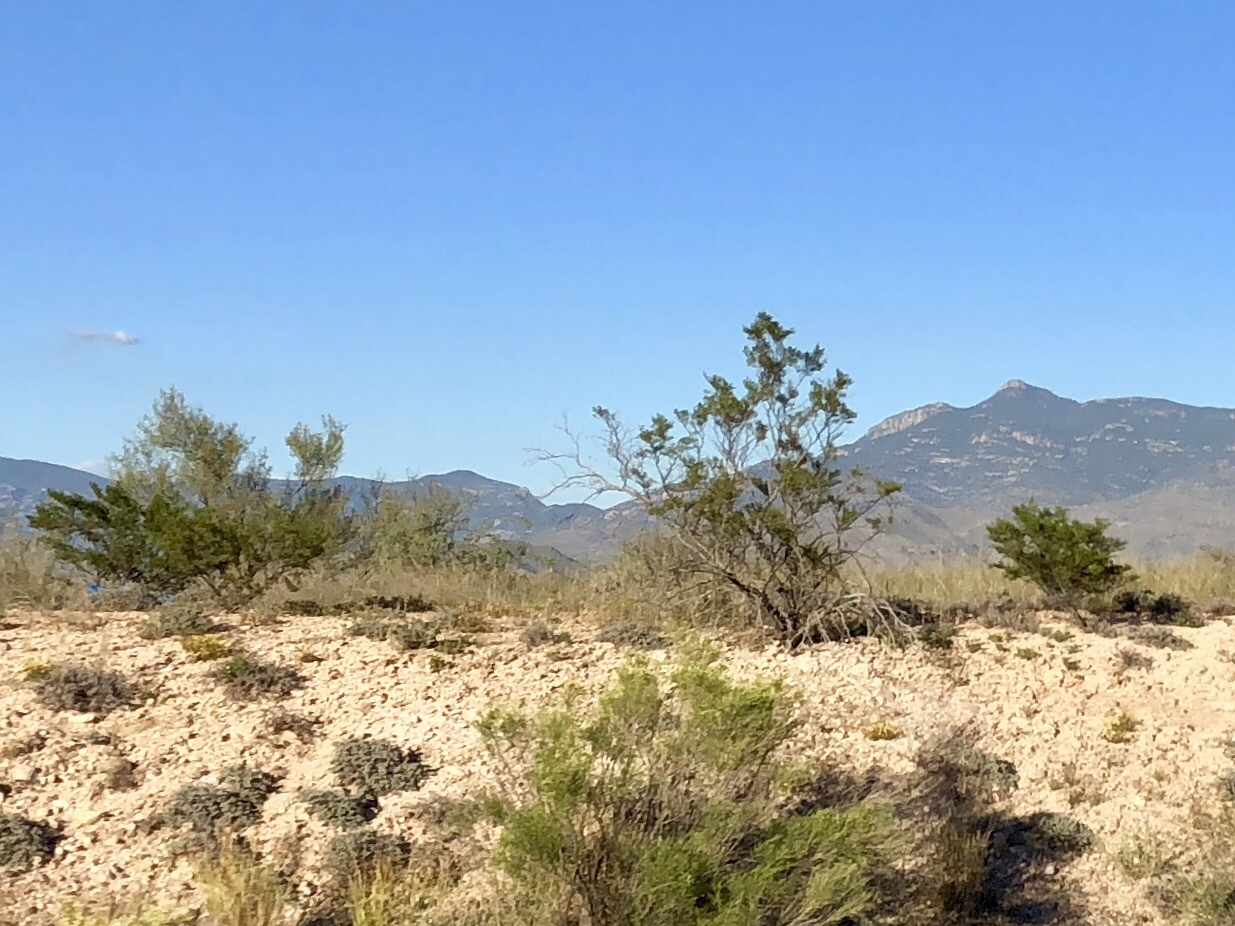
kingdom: Plantae
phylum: Tracheophyta
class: Magnoliopsida
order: Zygophyllales
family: Zygophyllaceae
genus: Larrea
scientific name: Larrea tridentata
